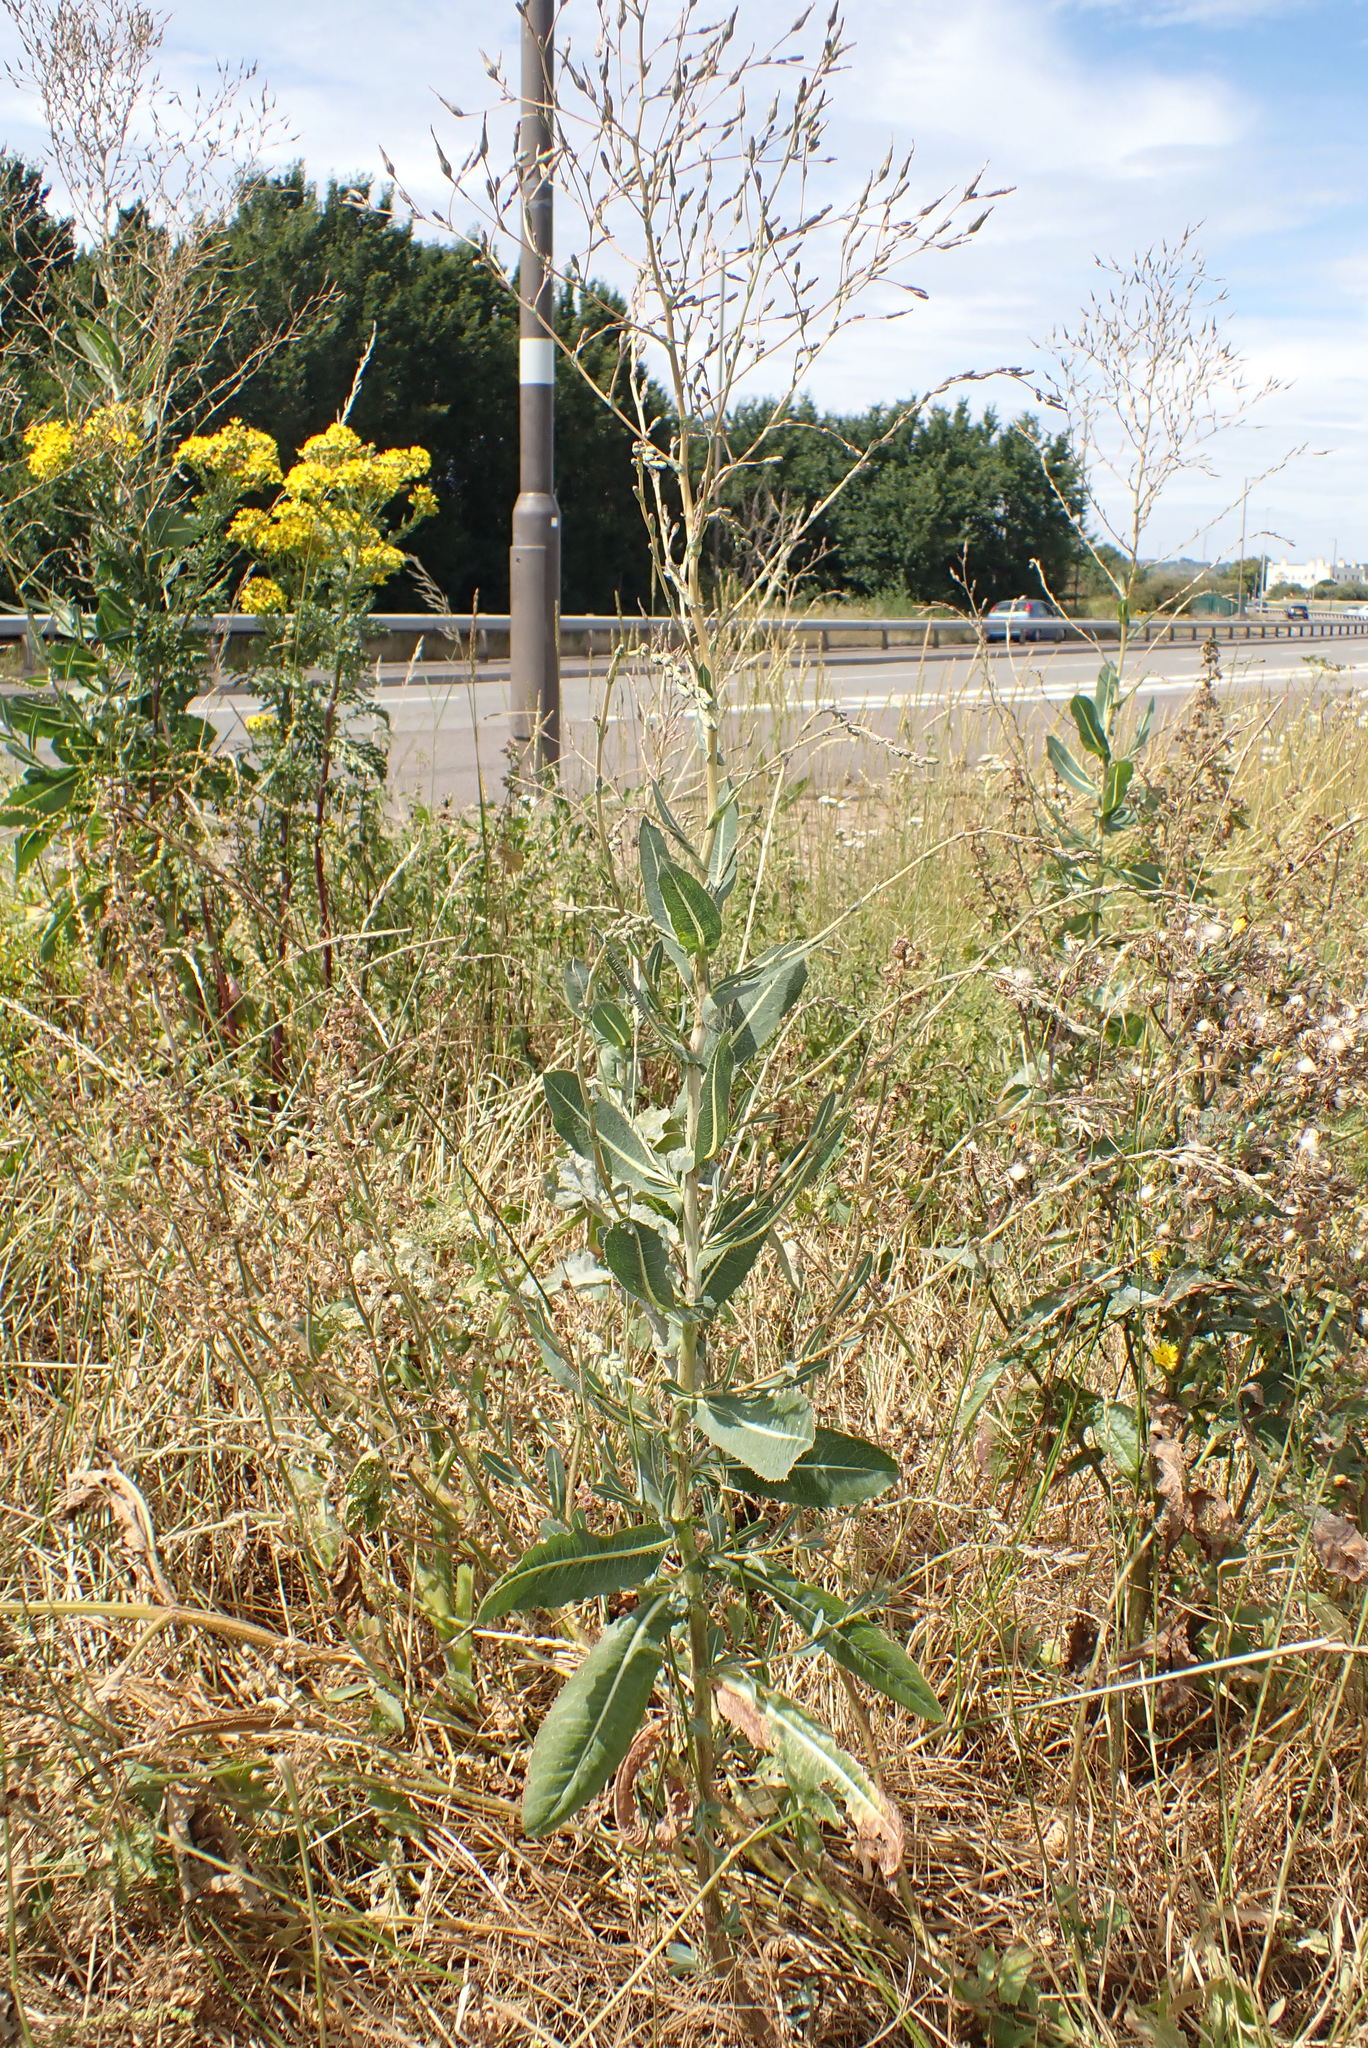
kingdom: Plantae
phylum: Tracheophyta
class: Magnoliopsida
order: Asterales
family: Asteraceae
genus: Lactuca
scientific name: Lactuca serriola
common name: Prickly lettuce
